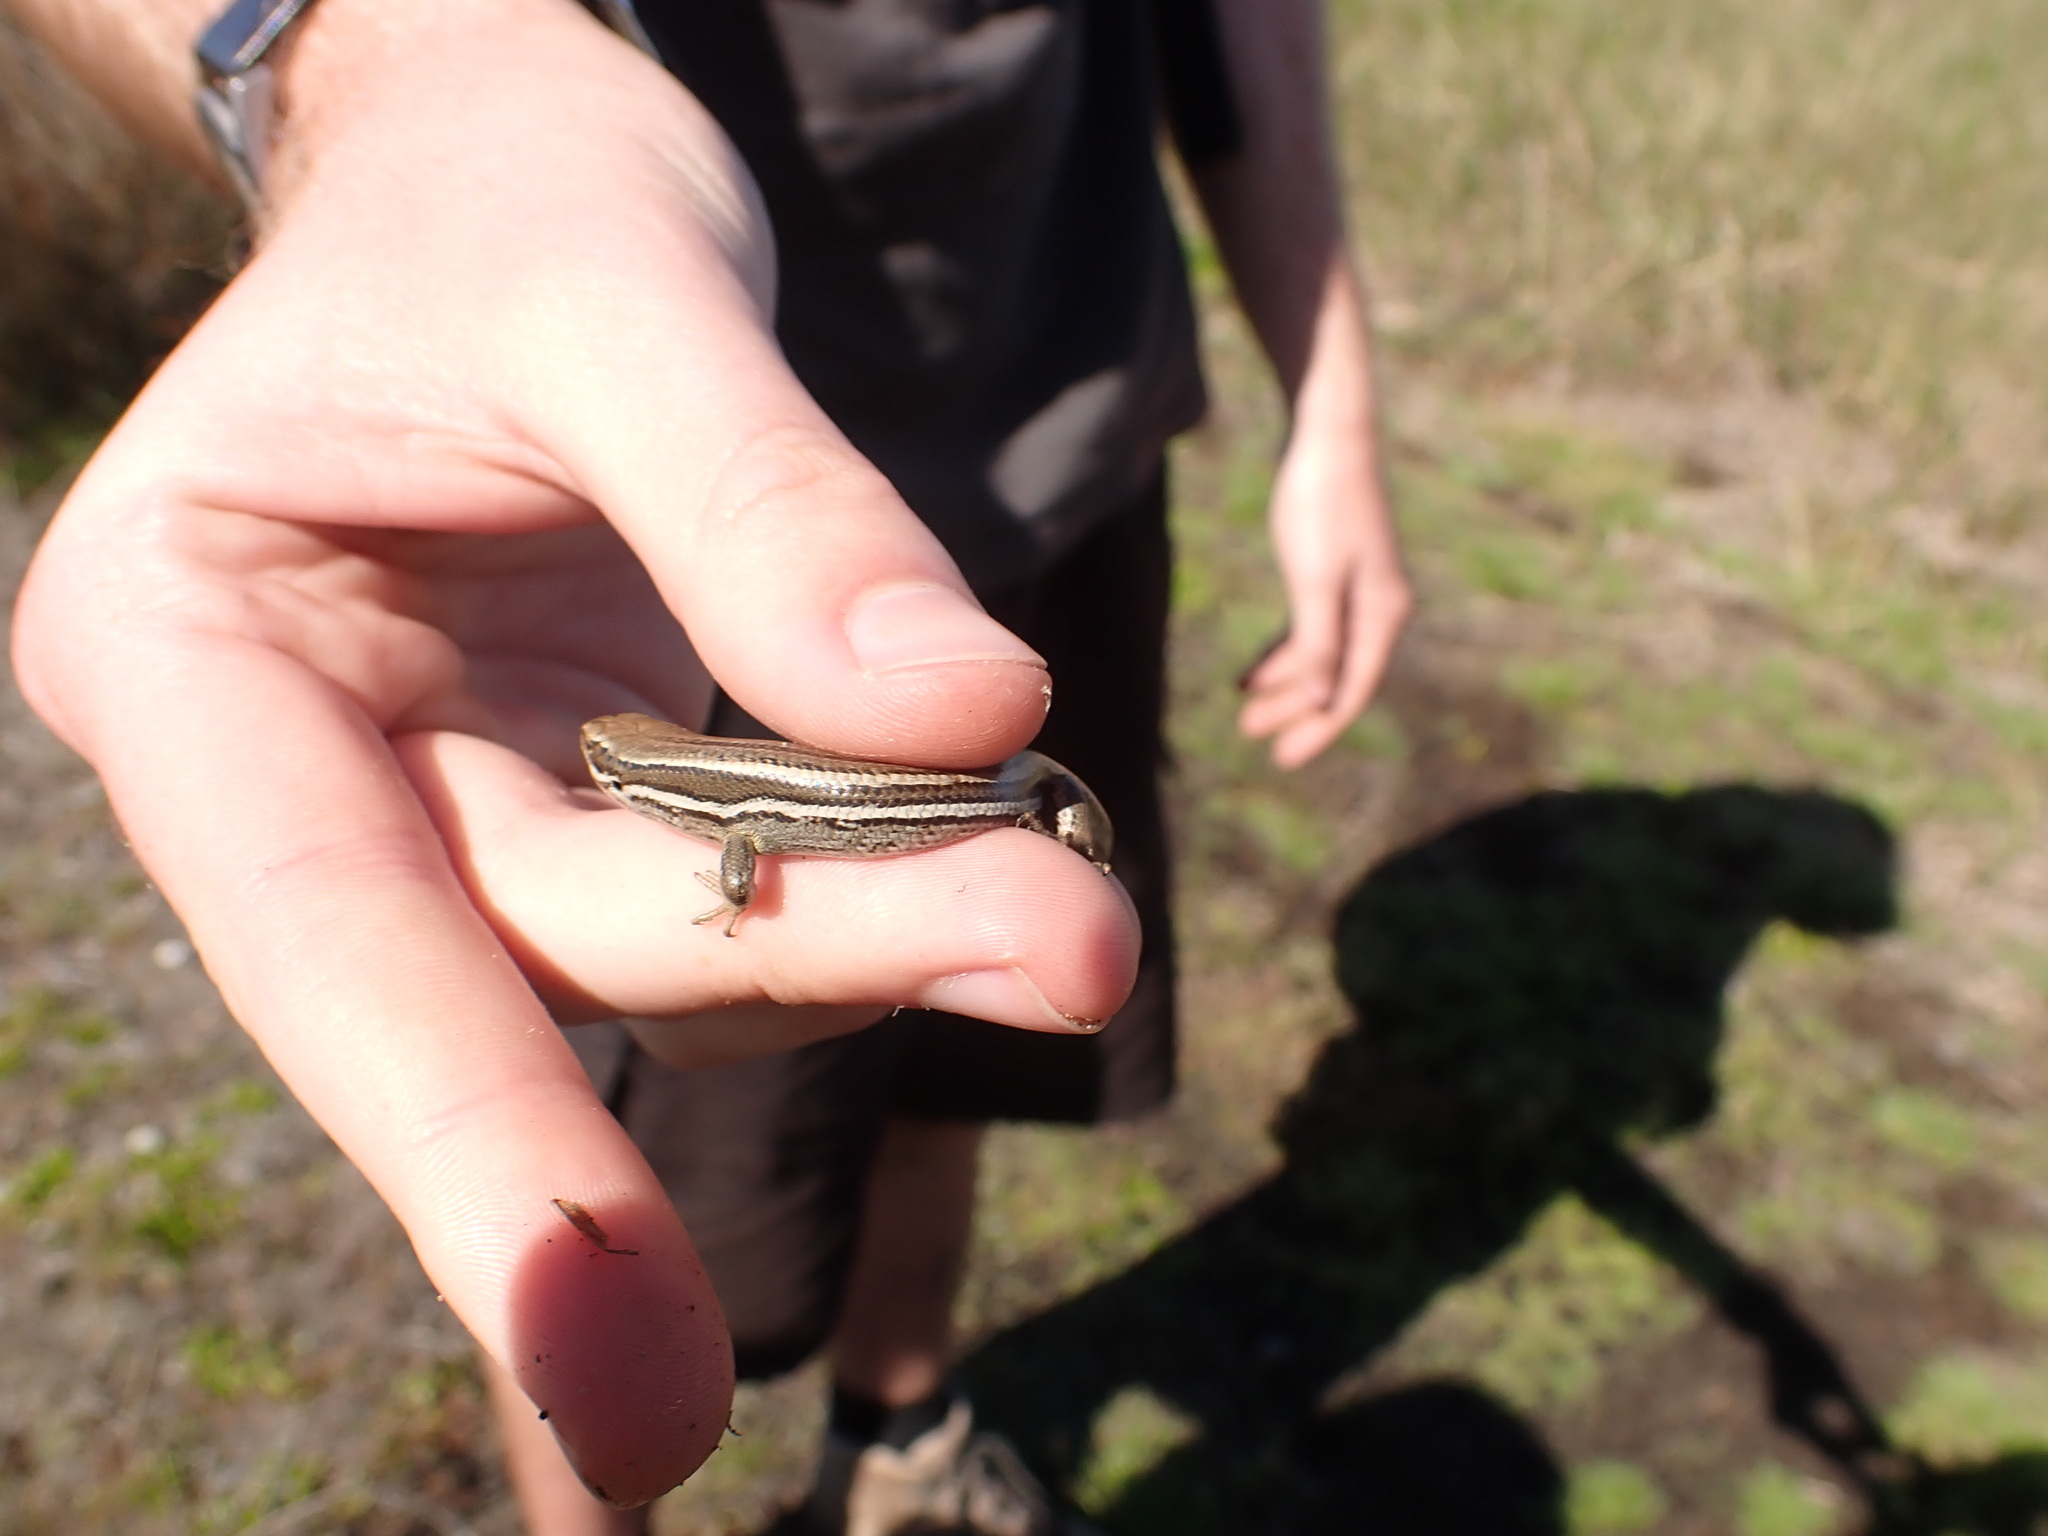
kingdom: Animalia
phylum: Chordata
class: Squamata
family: Scincidae
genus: Oligosoma
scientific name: Oligosoma maccanni
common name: Mccann’s skink
